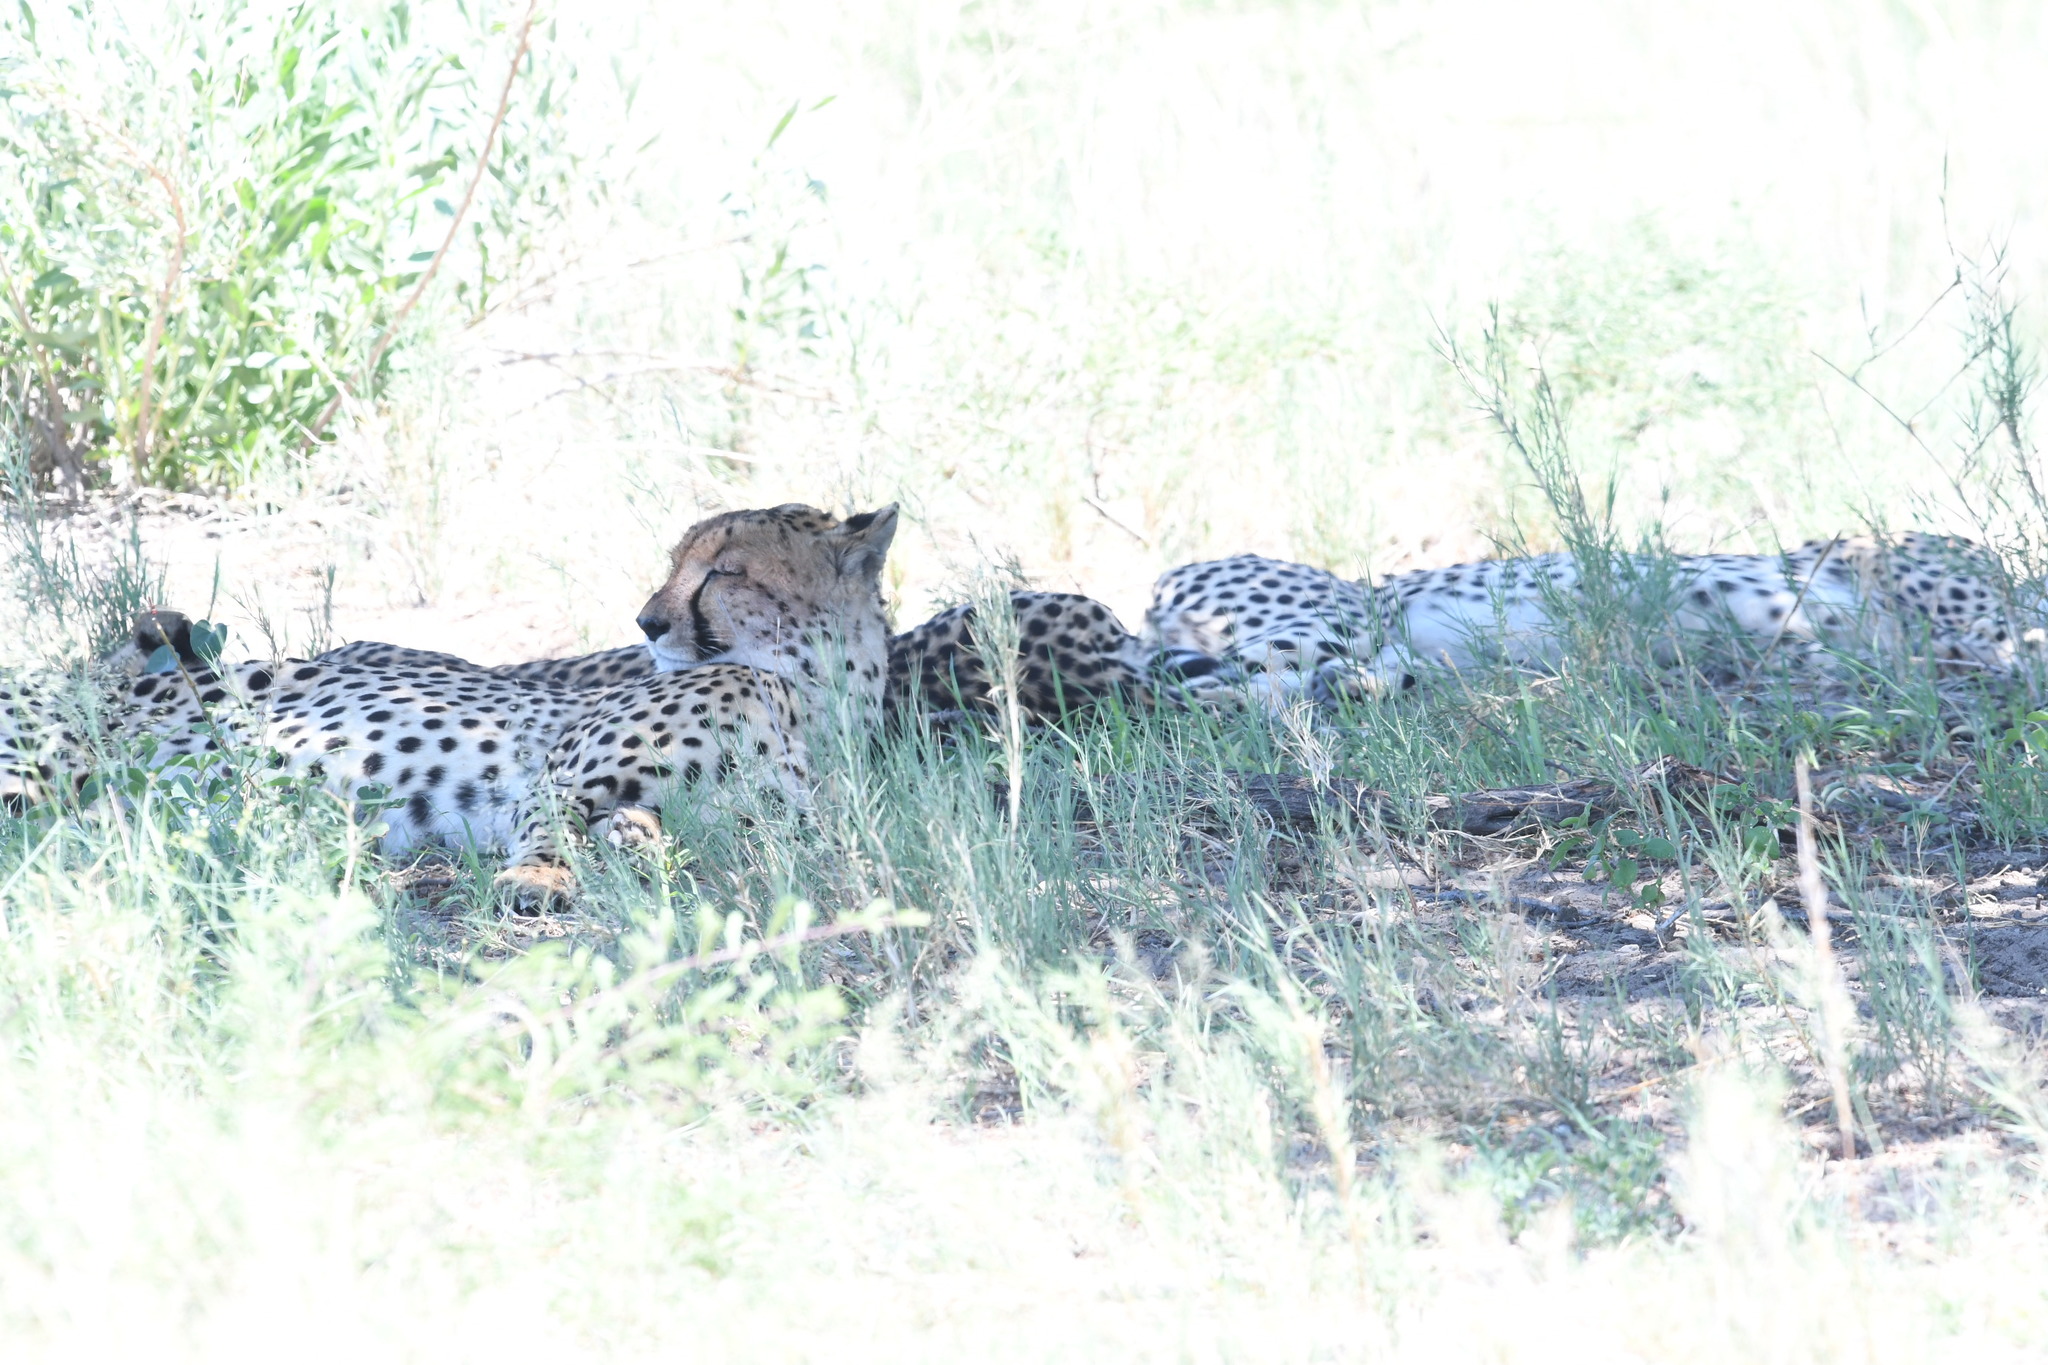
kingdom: Animalia
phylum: Chordata
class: Mammalia
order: Carnivora
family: Felidae
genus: Acinonyx
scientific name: Acinonyx jubatus
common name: Cheetah
